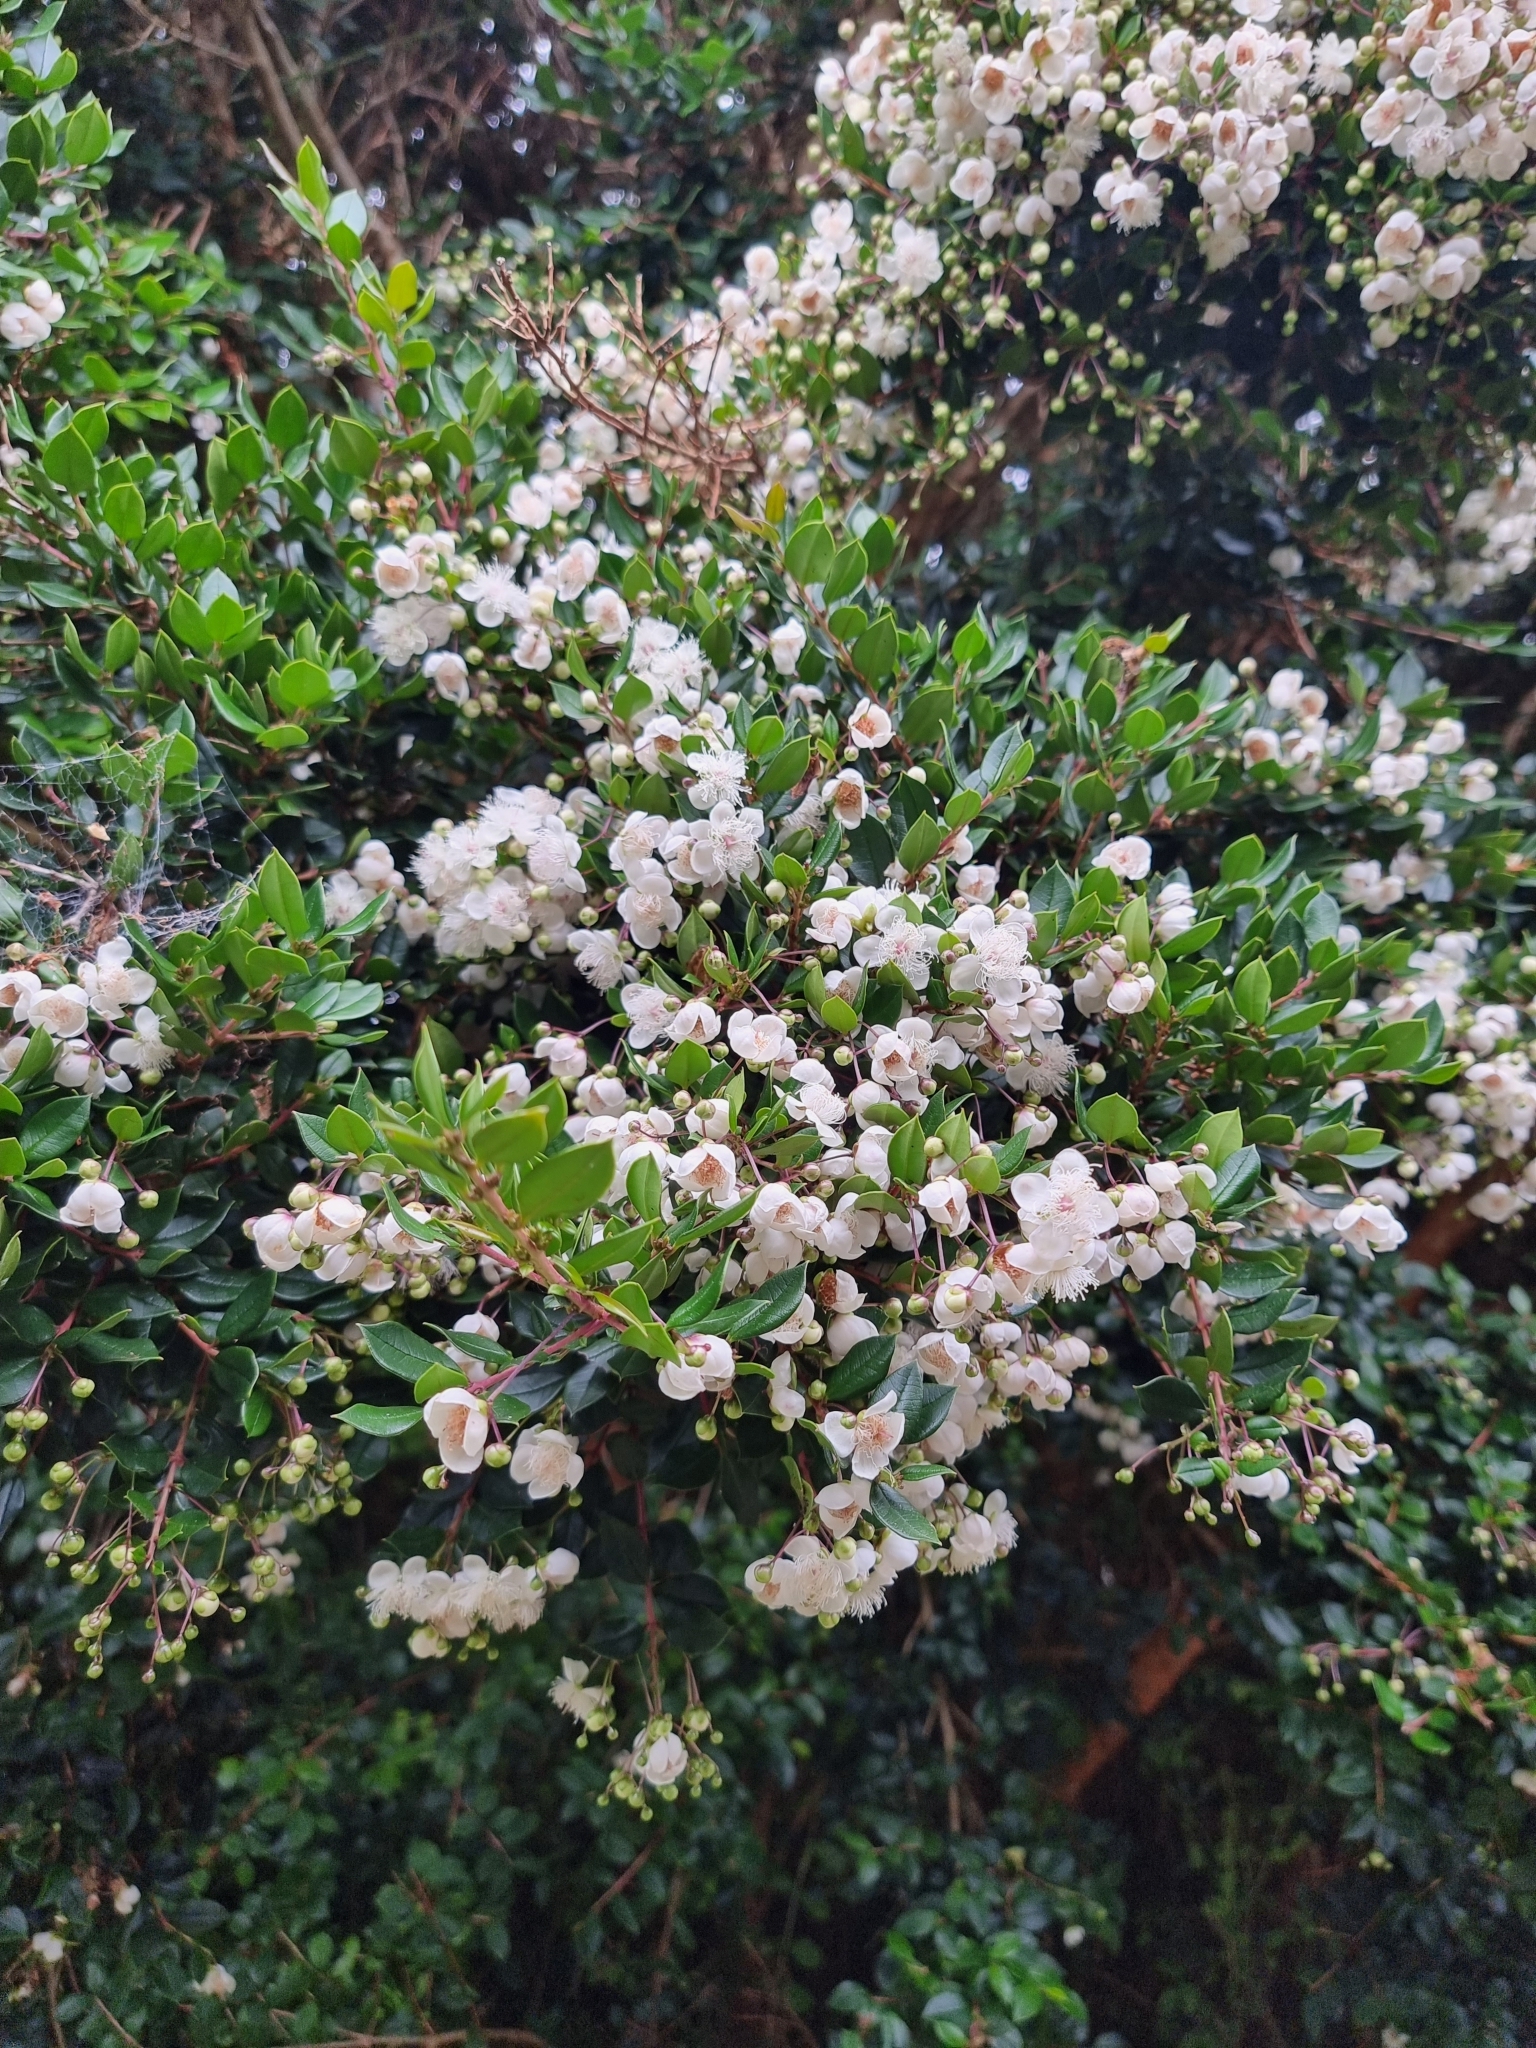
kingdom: Plantae
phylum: Tracheophyta
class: Magnoliopsida
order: Myrtales
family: Myrtaceae
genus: Luma
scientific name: Luma apiculata
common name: Chilean myrtle
